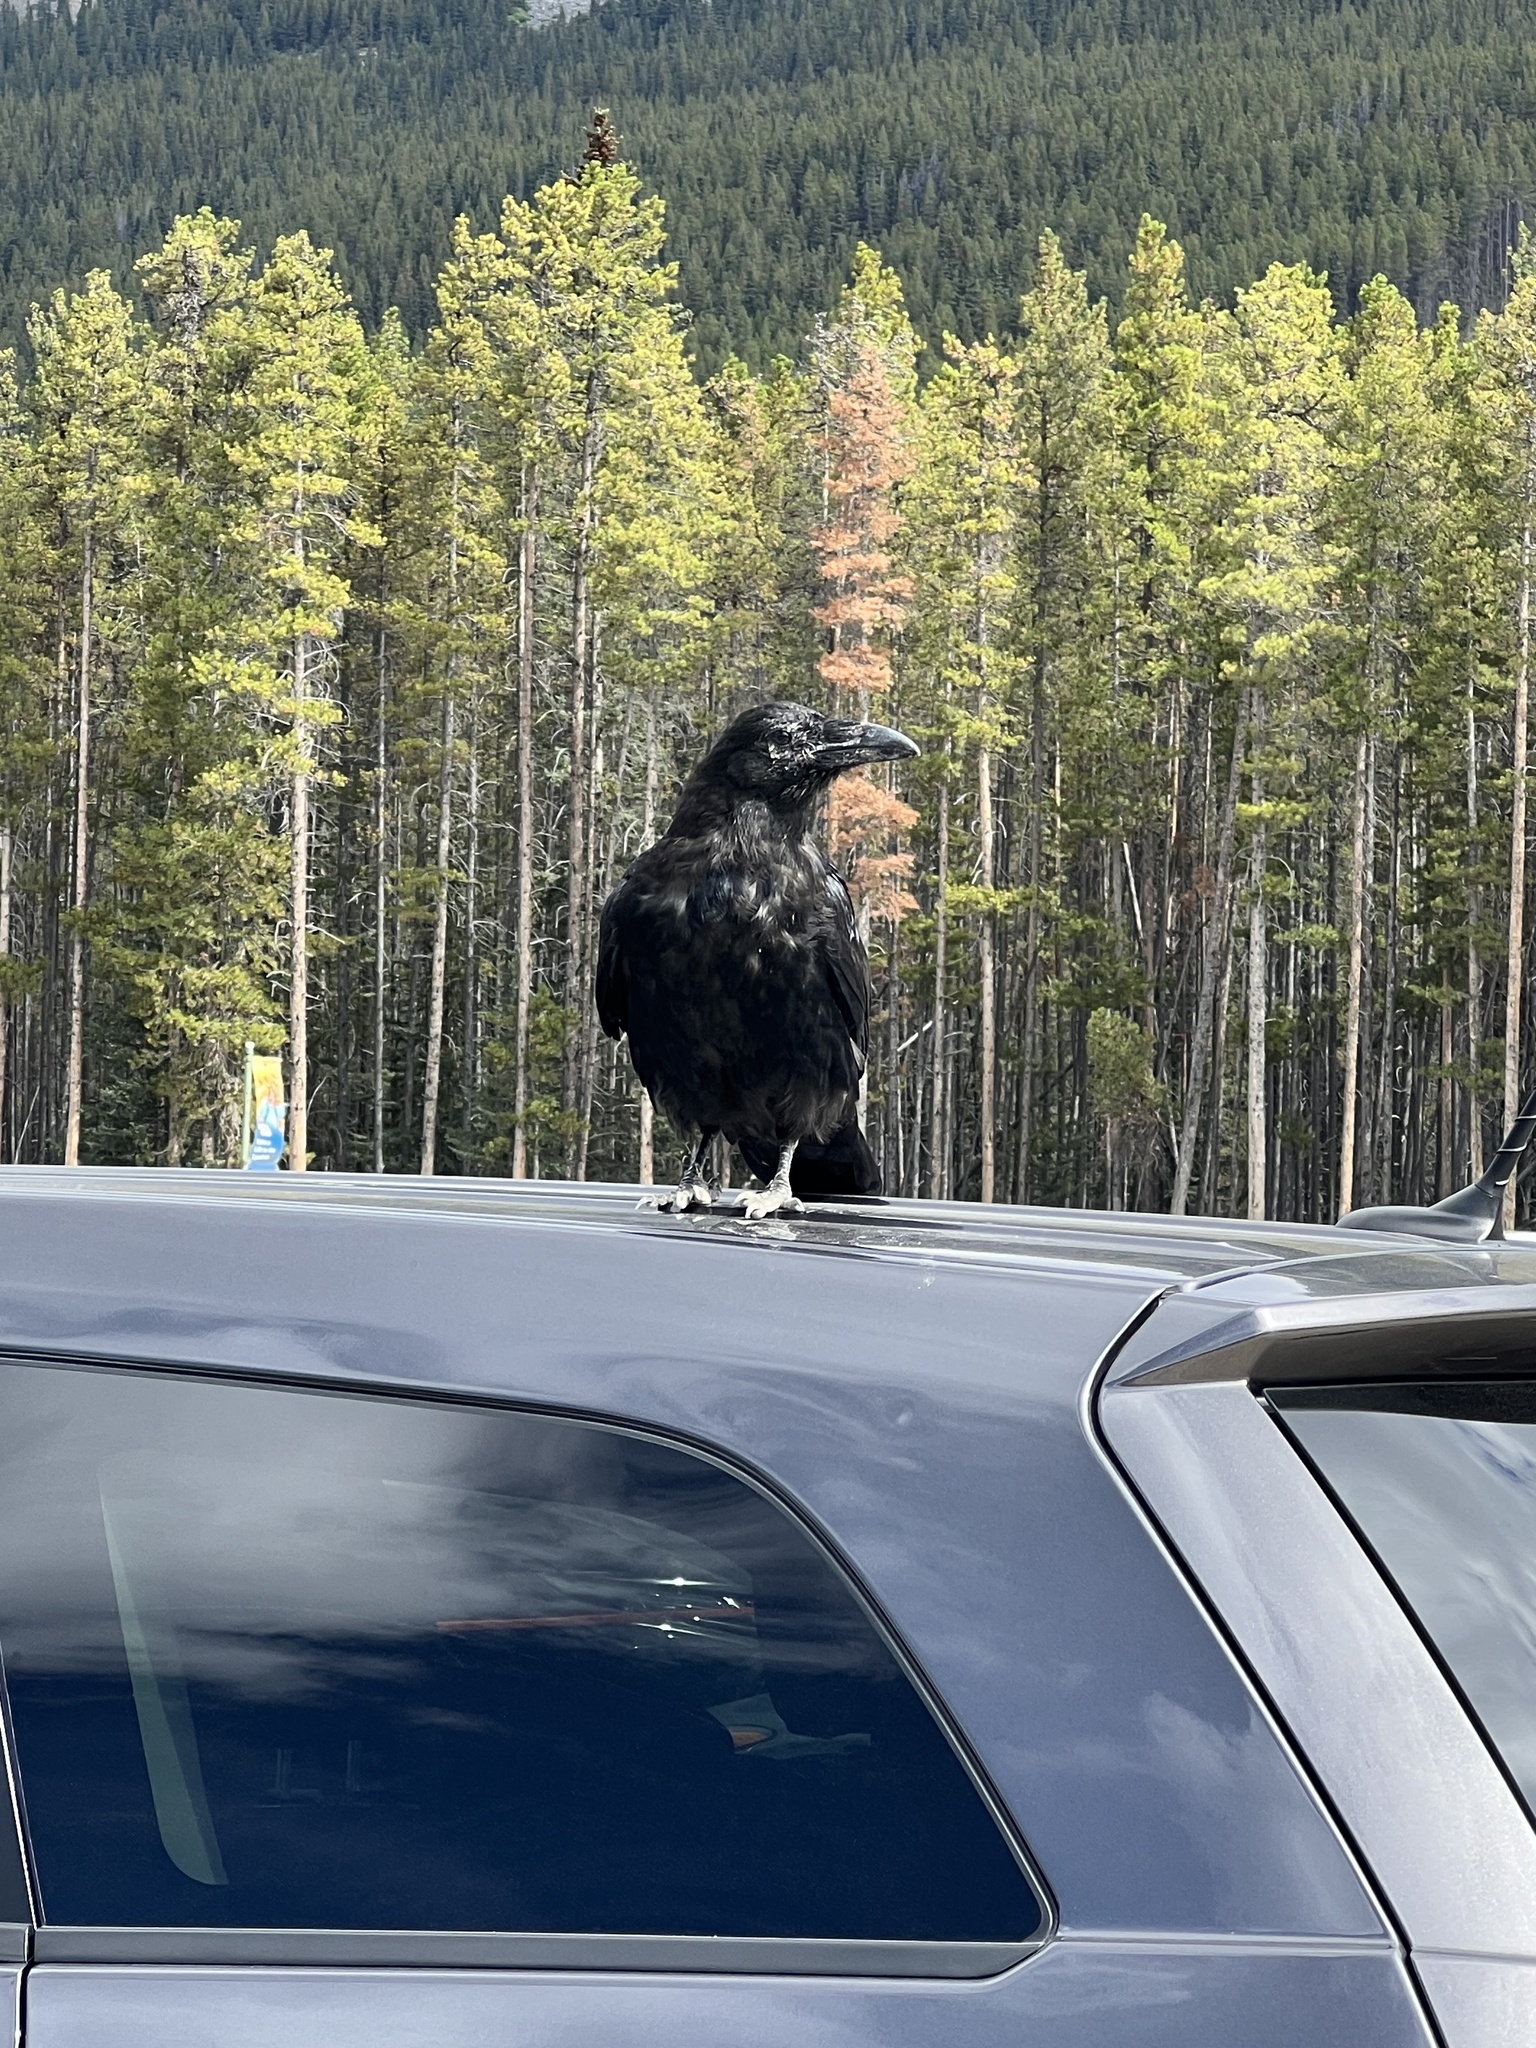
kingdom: Animalia
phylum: Chordata
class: Aves
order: Passeriformes
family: Corvidae
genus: Corvus
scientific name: Corvus corax
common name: Common raven
